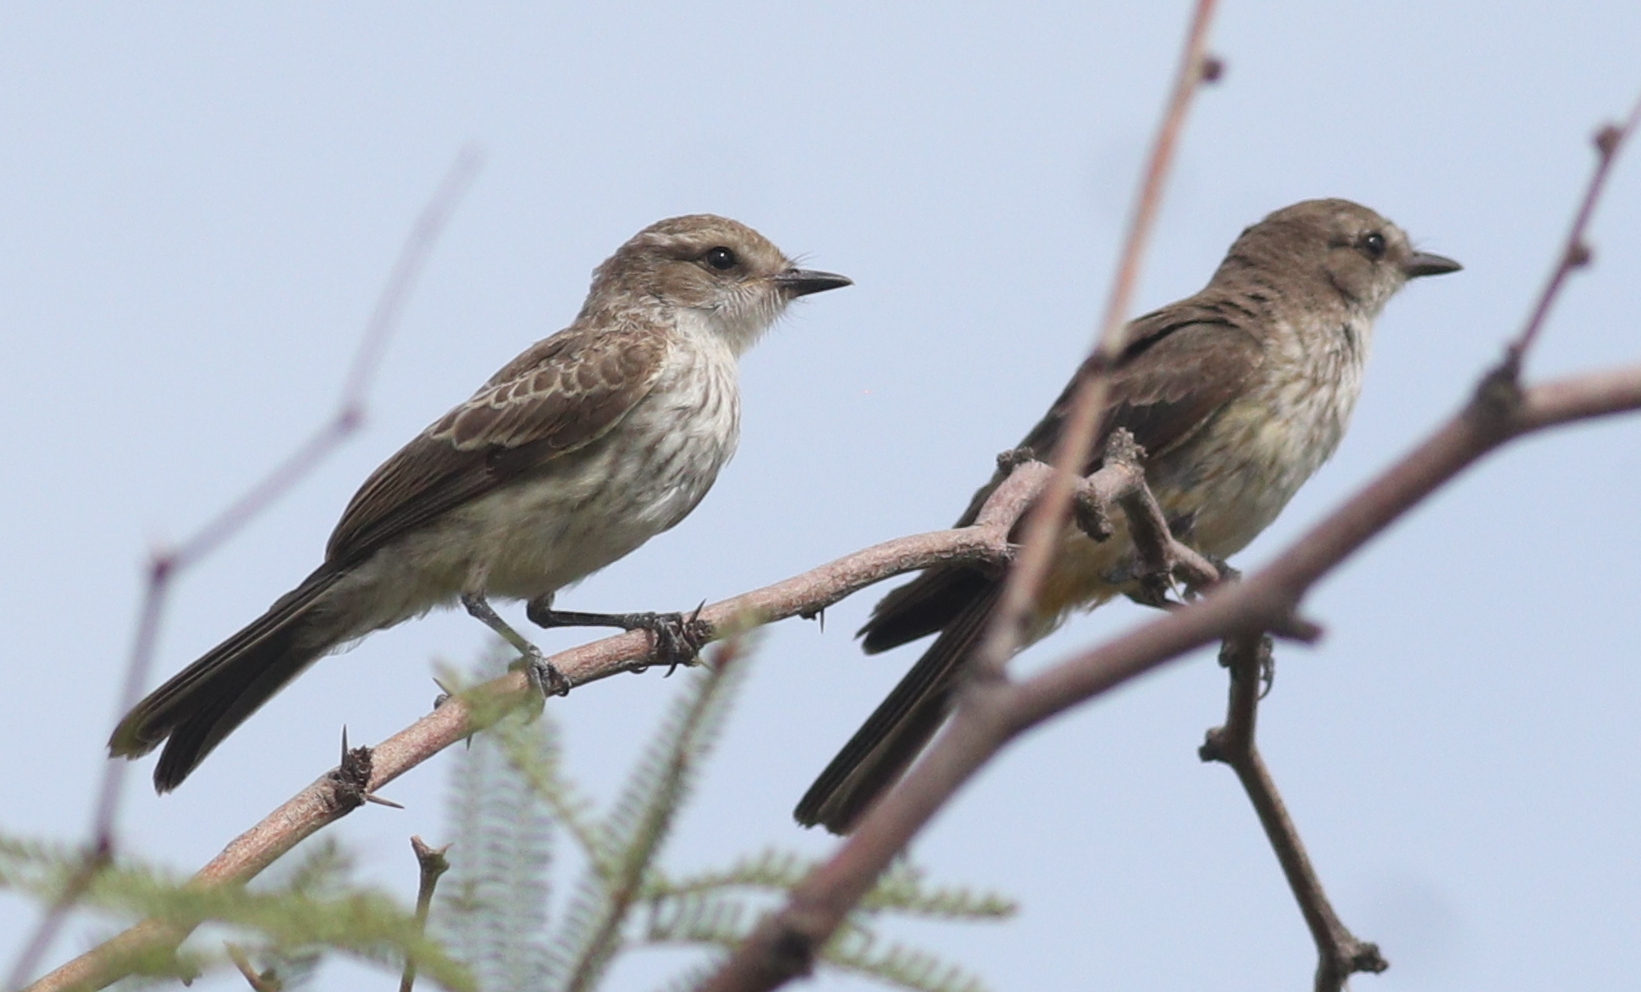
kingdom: Animalia
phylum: Chordata
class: Aves
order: Passeriformes
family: Tyrannidae
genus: Pyrocephalus
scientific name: Pyrocephalus rubinus
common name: Vermilion flycatcher
